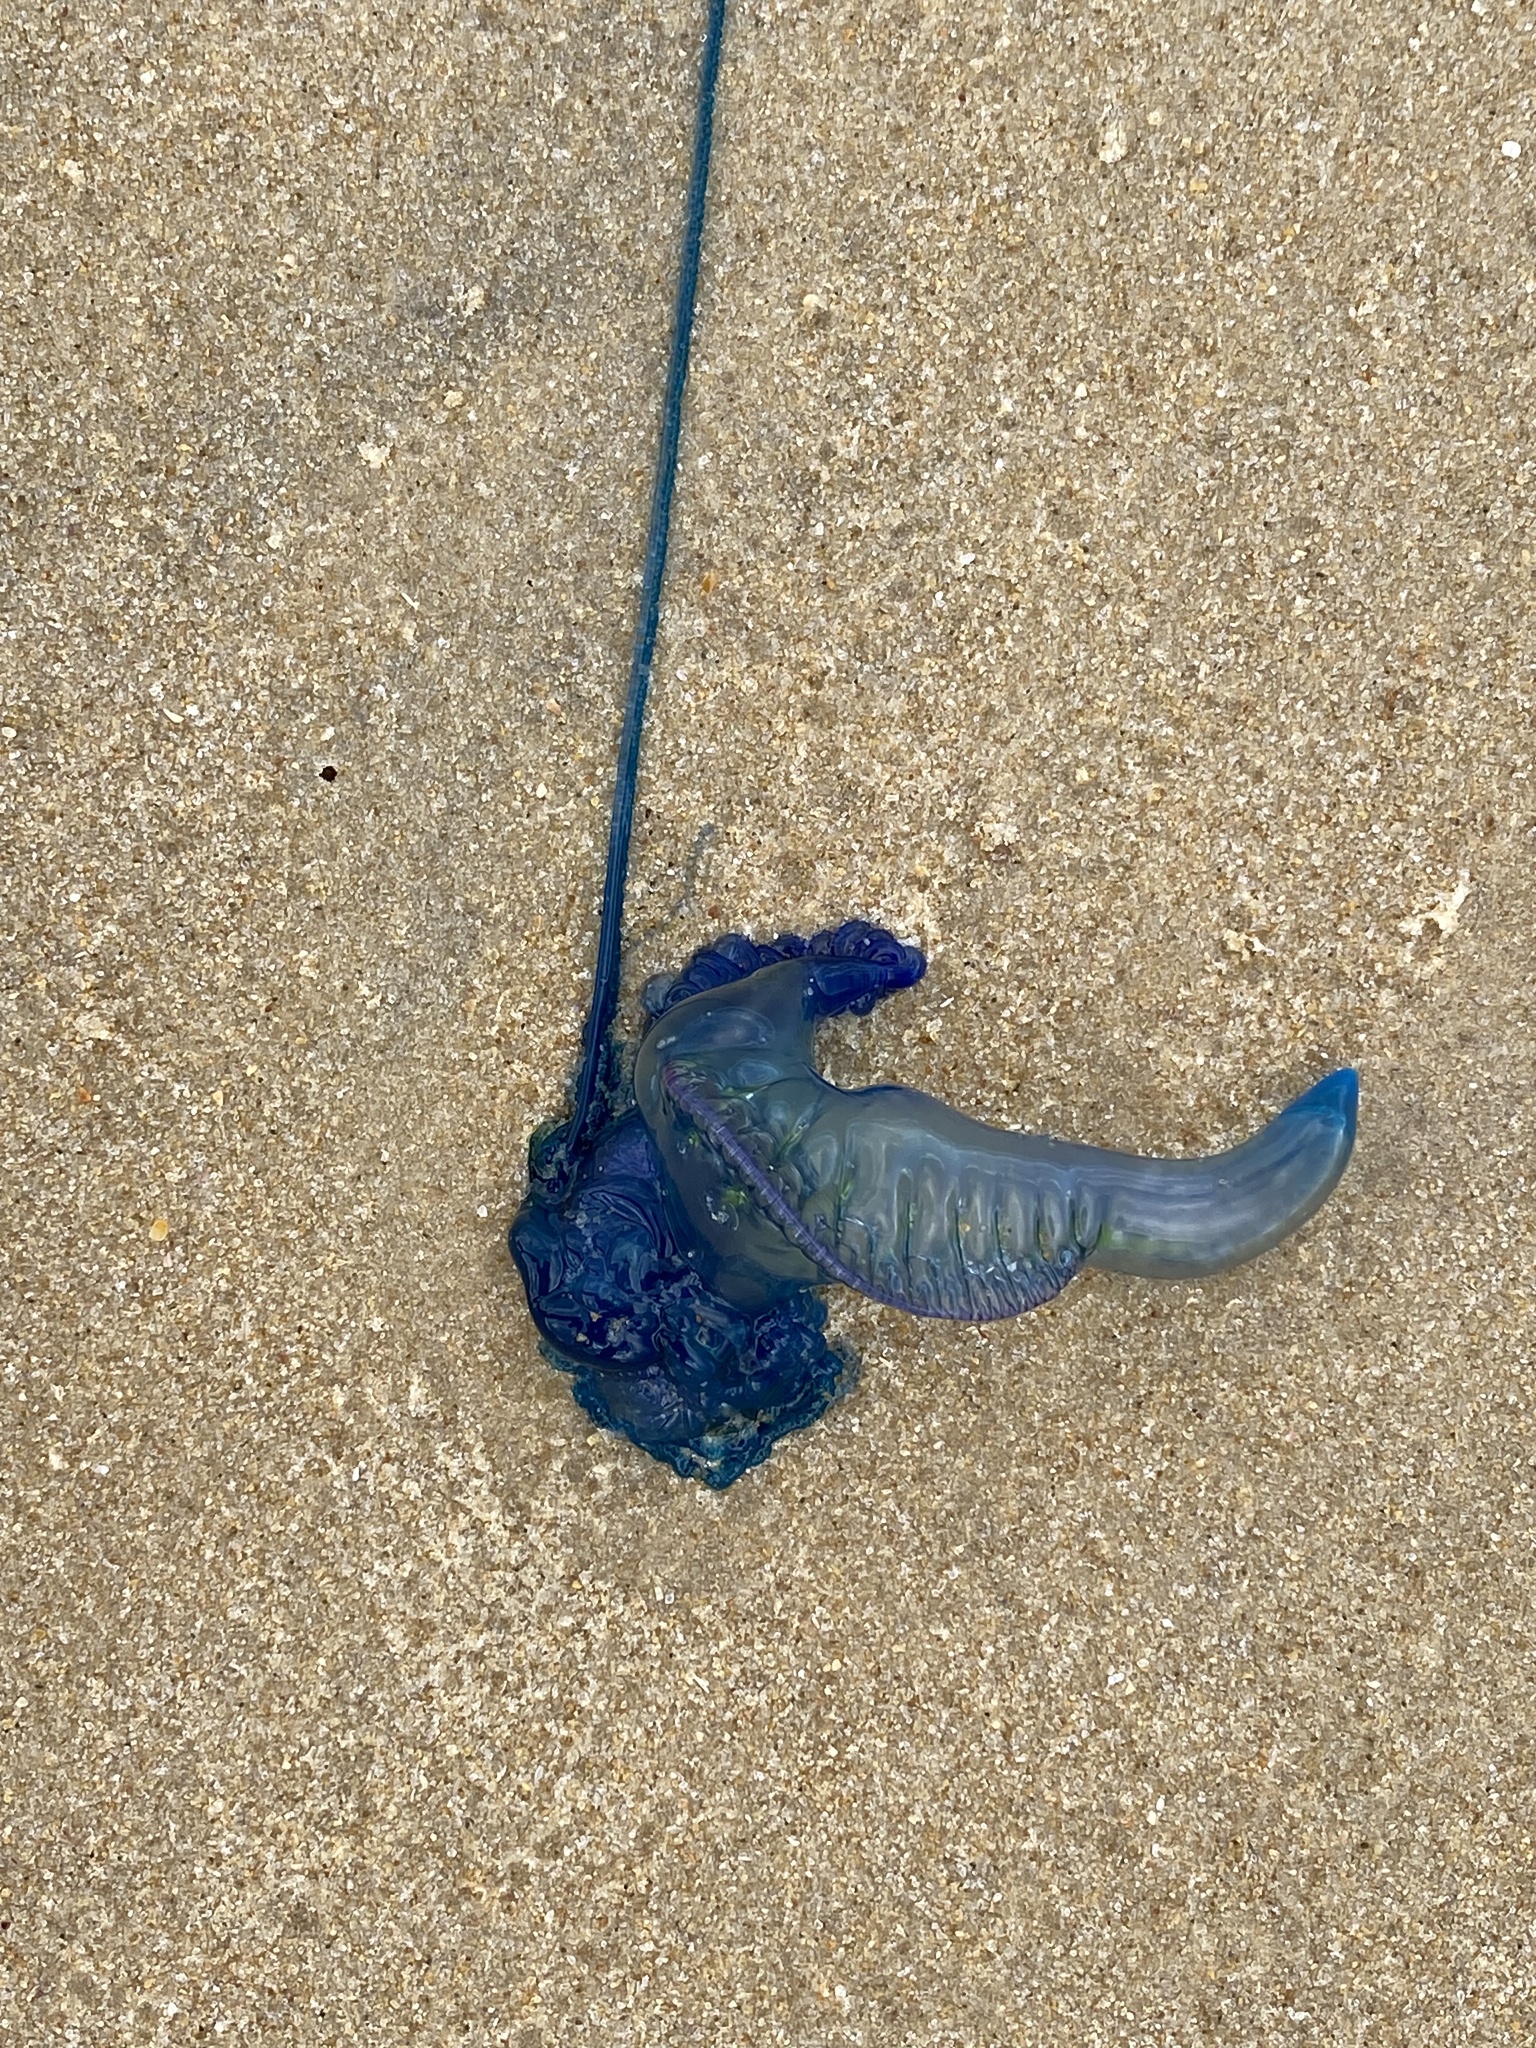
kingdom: Animalia
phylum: Cnidaria
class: Hydrozoa
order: Siphonophorae
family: Physaliidae
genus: Physalia
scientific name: Physalia physalis
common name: Portuguese man-of-war
